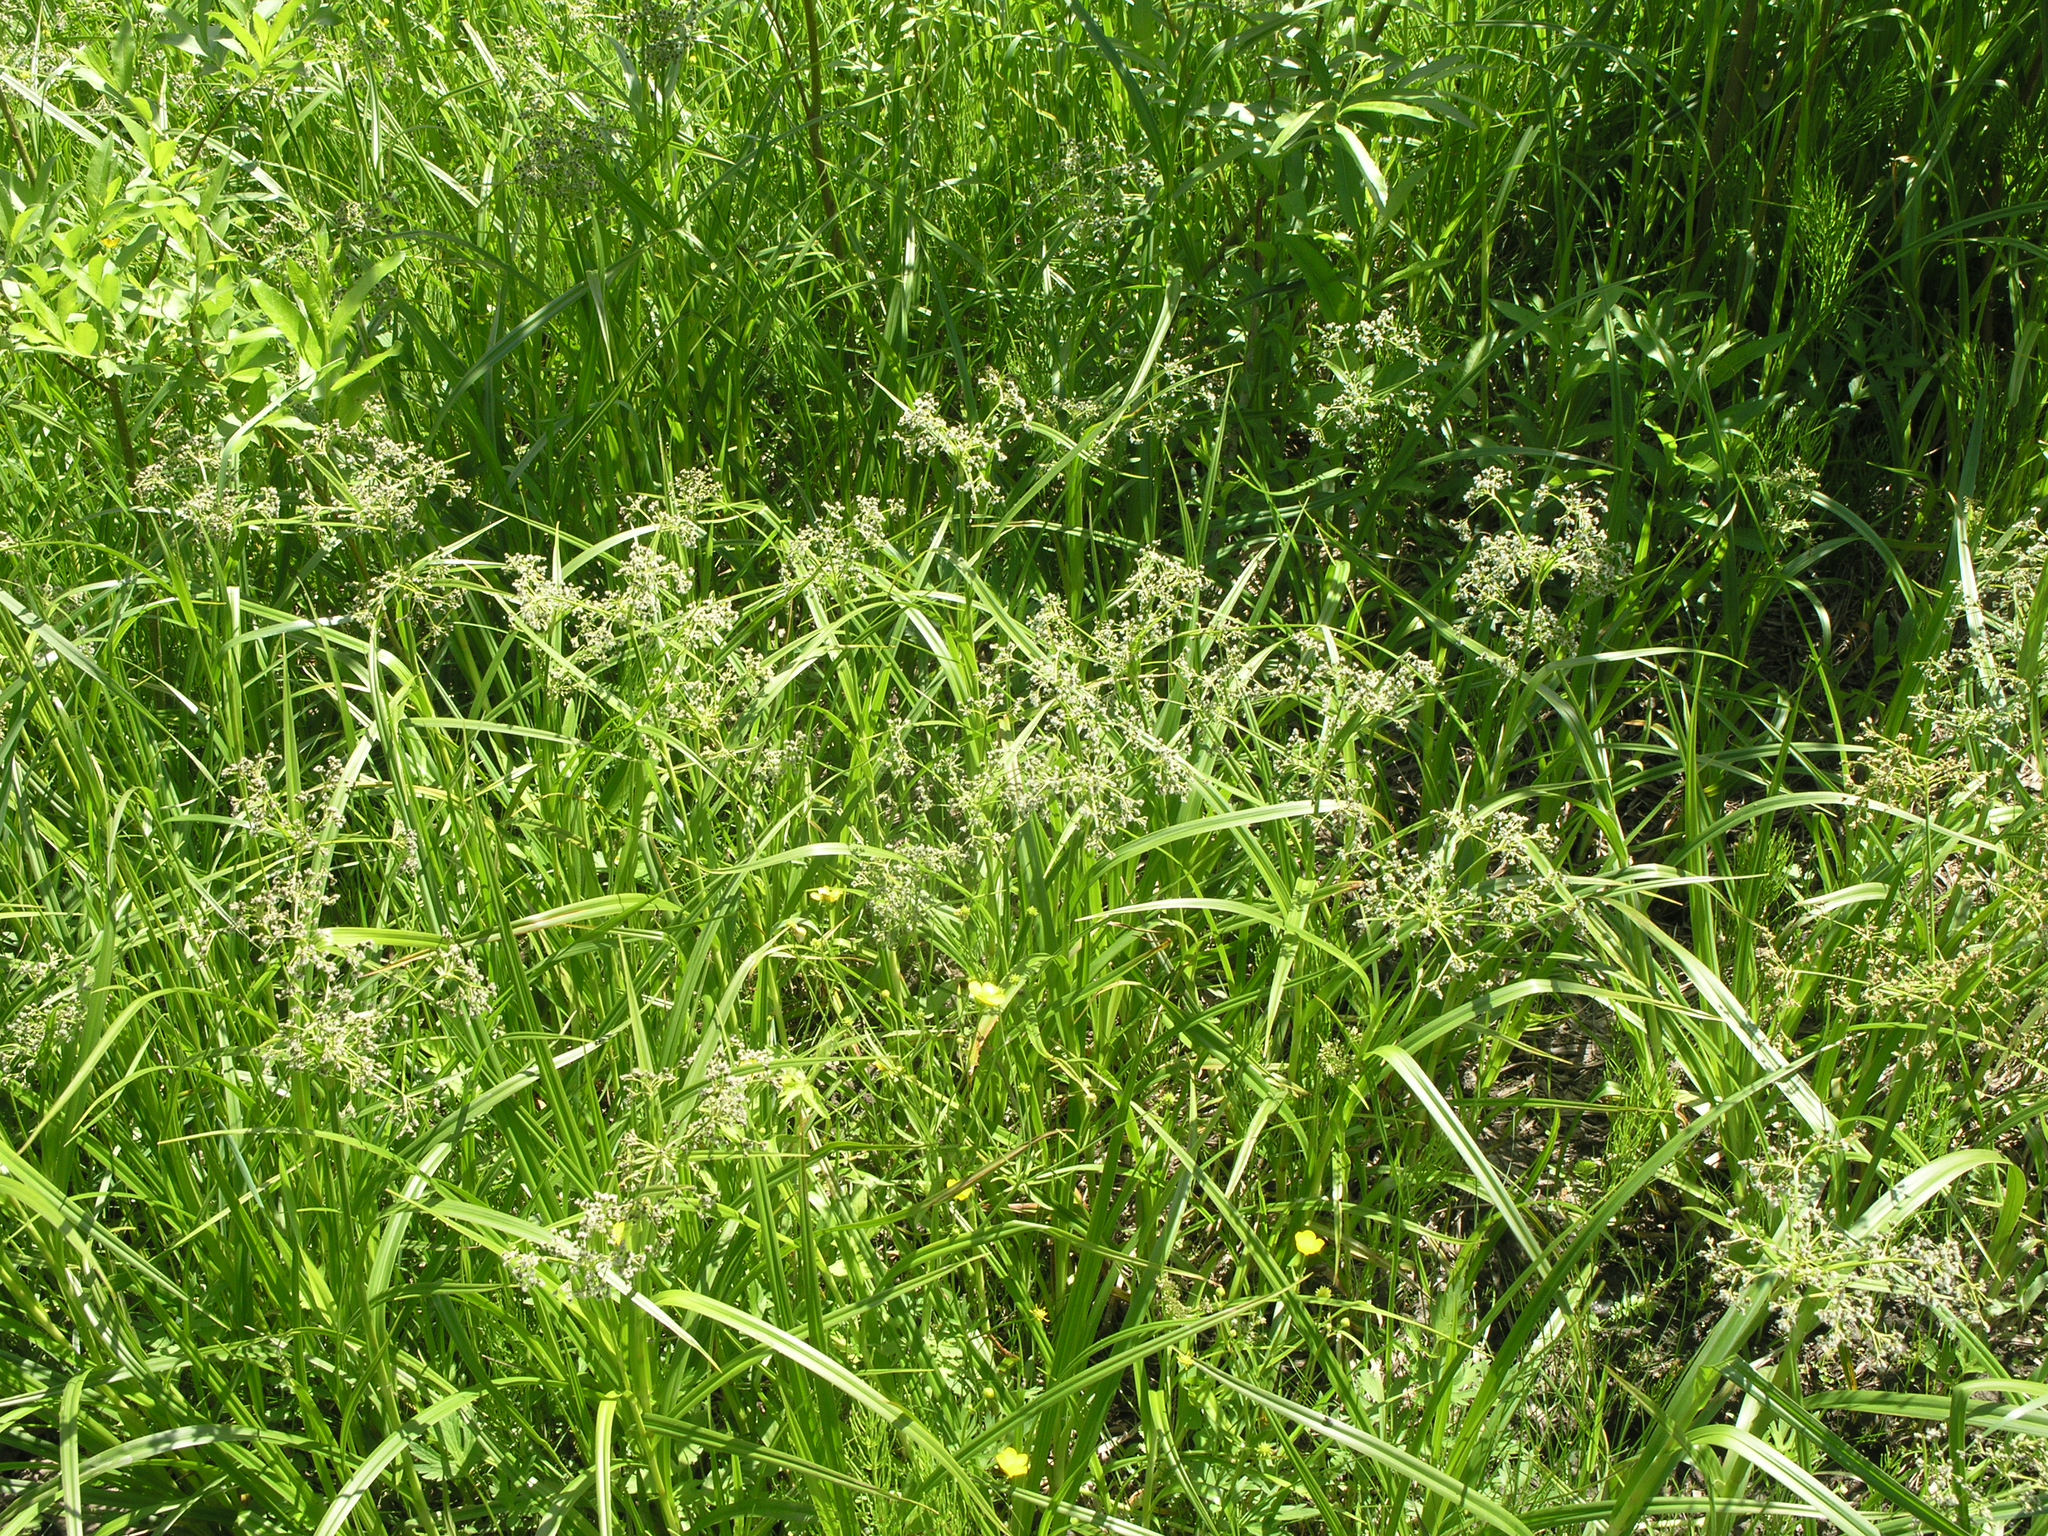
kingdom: Plantae
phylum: Tracheophyta
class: Liliopsida
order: Poales
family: Cyperaceae
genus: Scirpus
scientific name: Scirpus sylvaticus
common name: Wood club-rush
